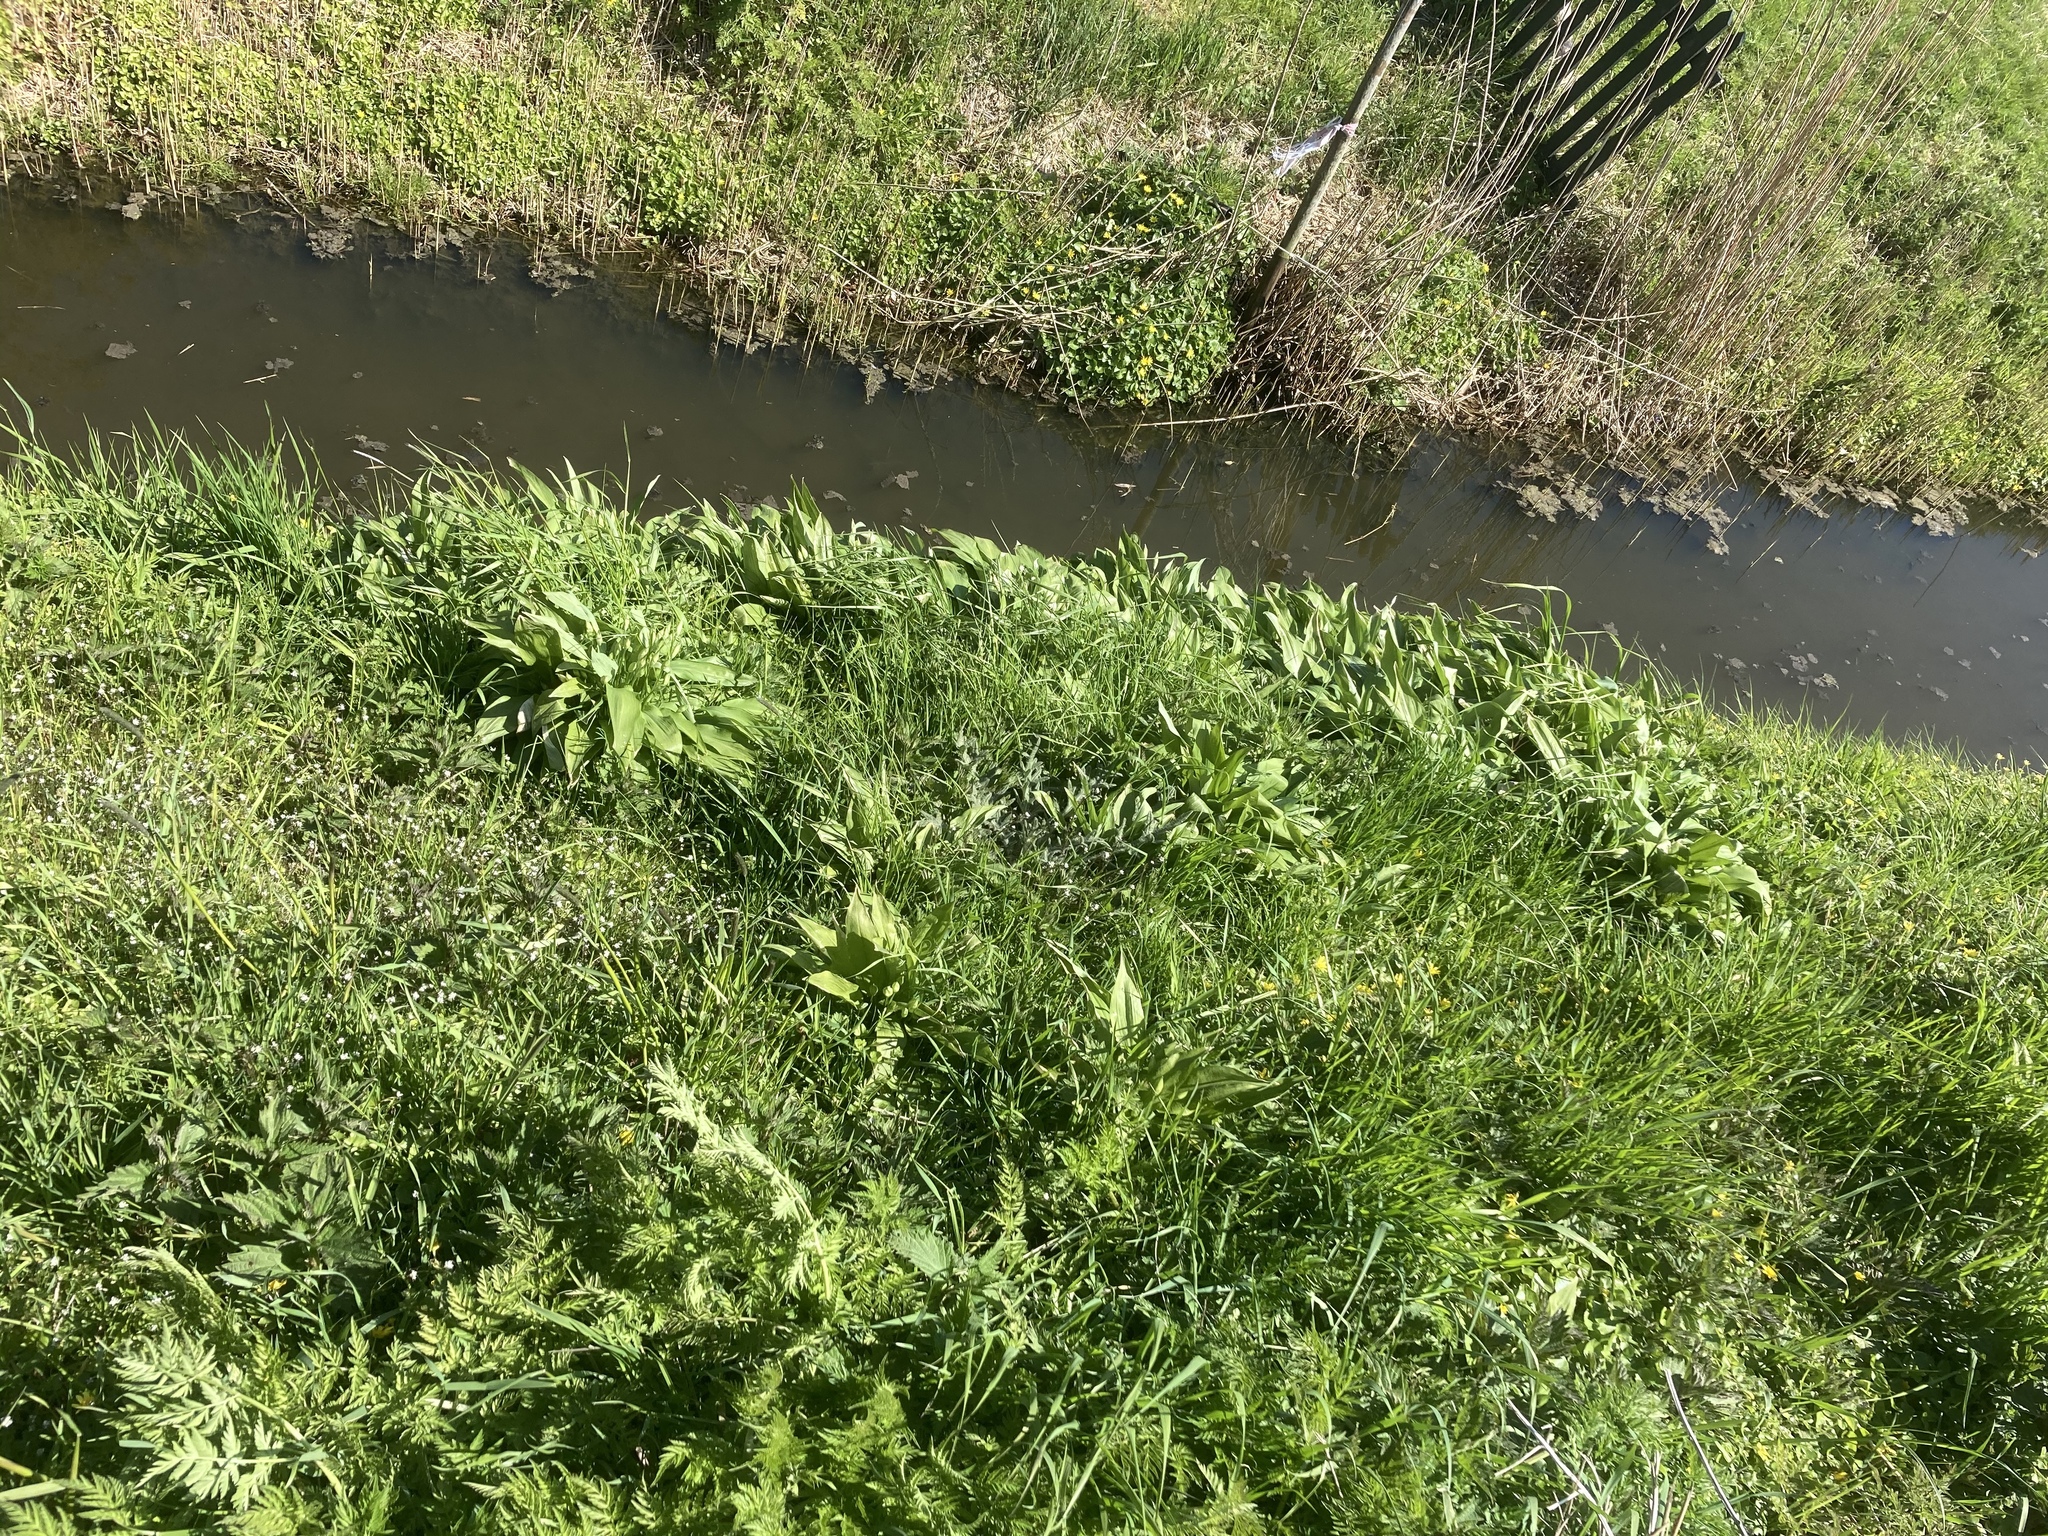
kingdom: Plantae
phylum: Tracheophyta
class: Liliopsida
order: Asparagales
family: Amaryllidaceae
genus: Allium
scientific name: Allium ursinum
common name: Ramsons
